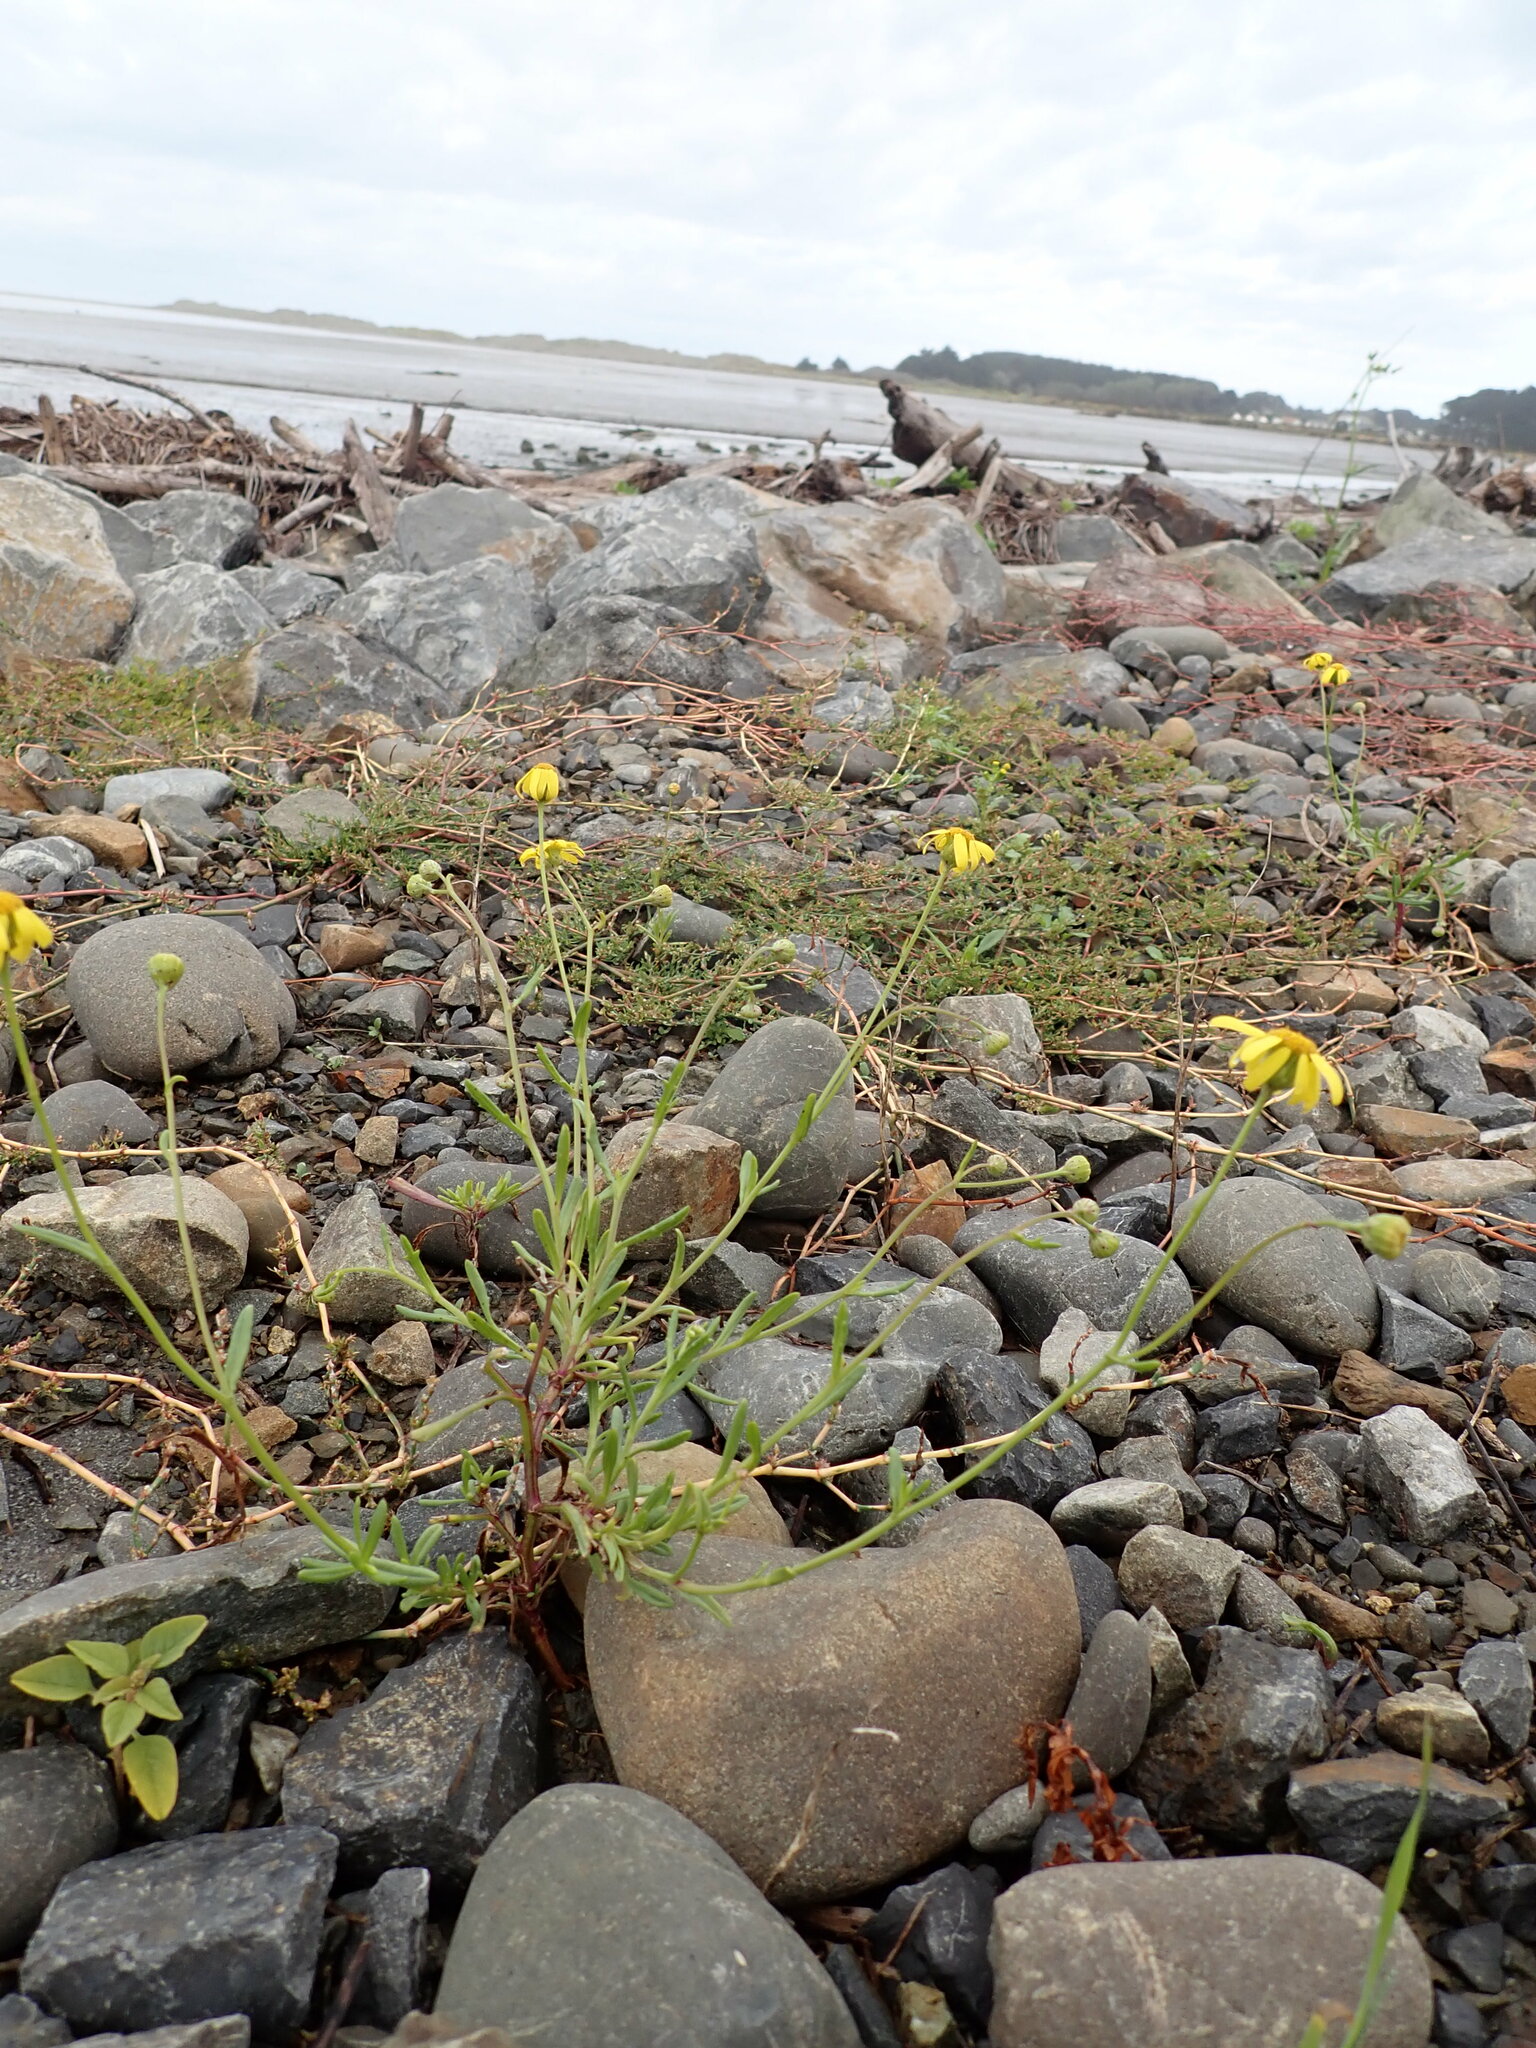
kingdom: Plantae
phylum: Tracheophyta
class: Magnoliopsida
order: Asterales
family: Asteraceae
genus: Senecio
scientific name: Senecio skirrhodon
